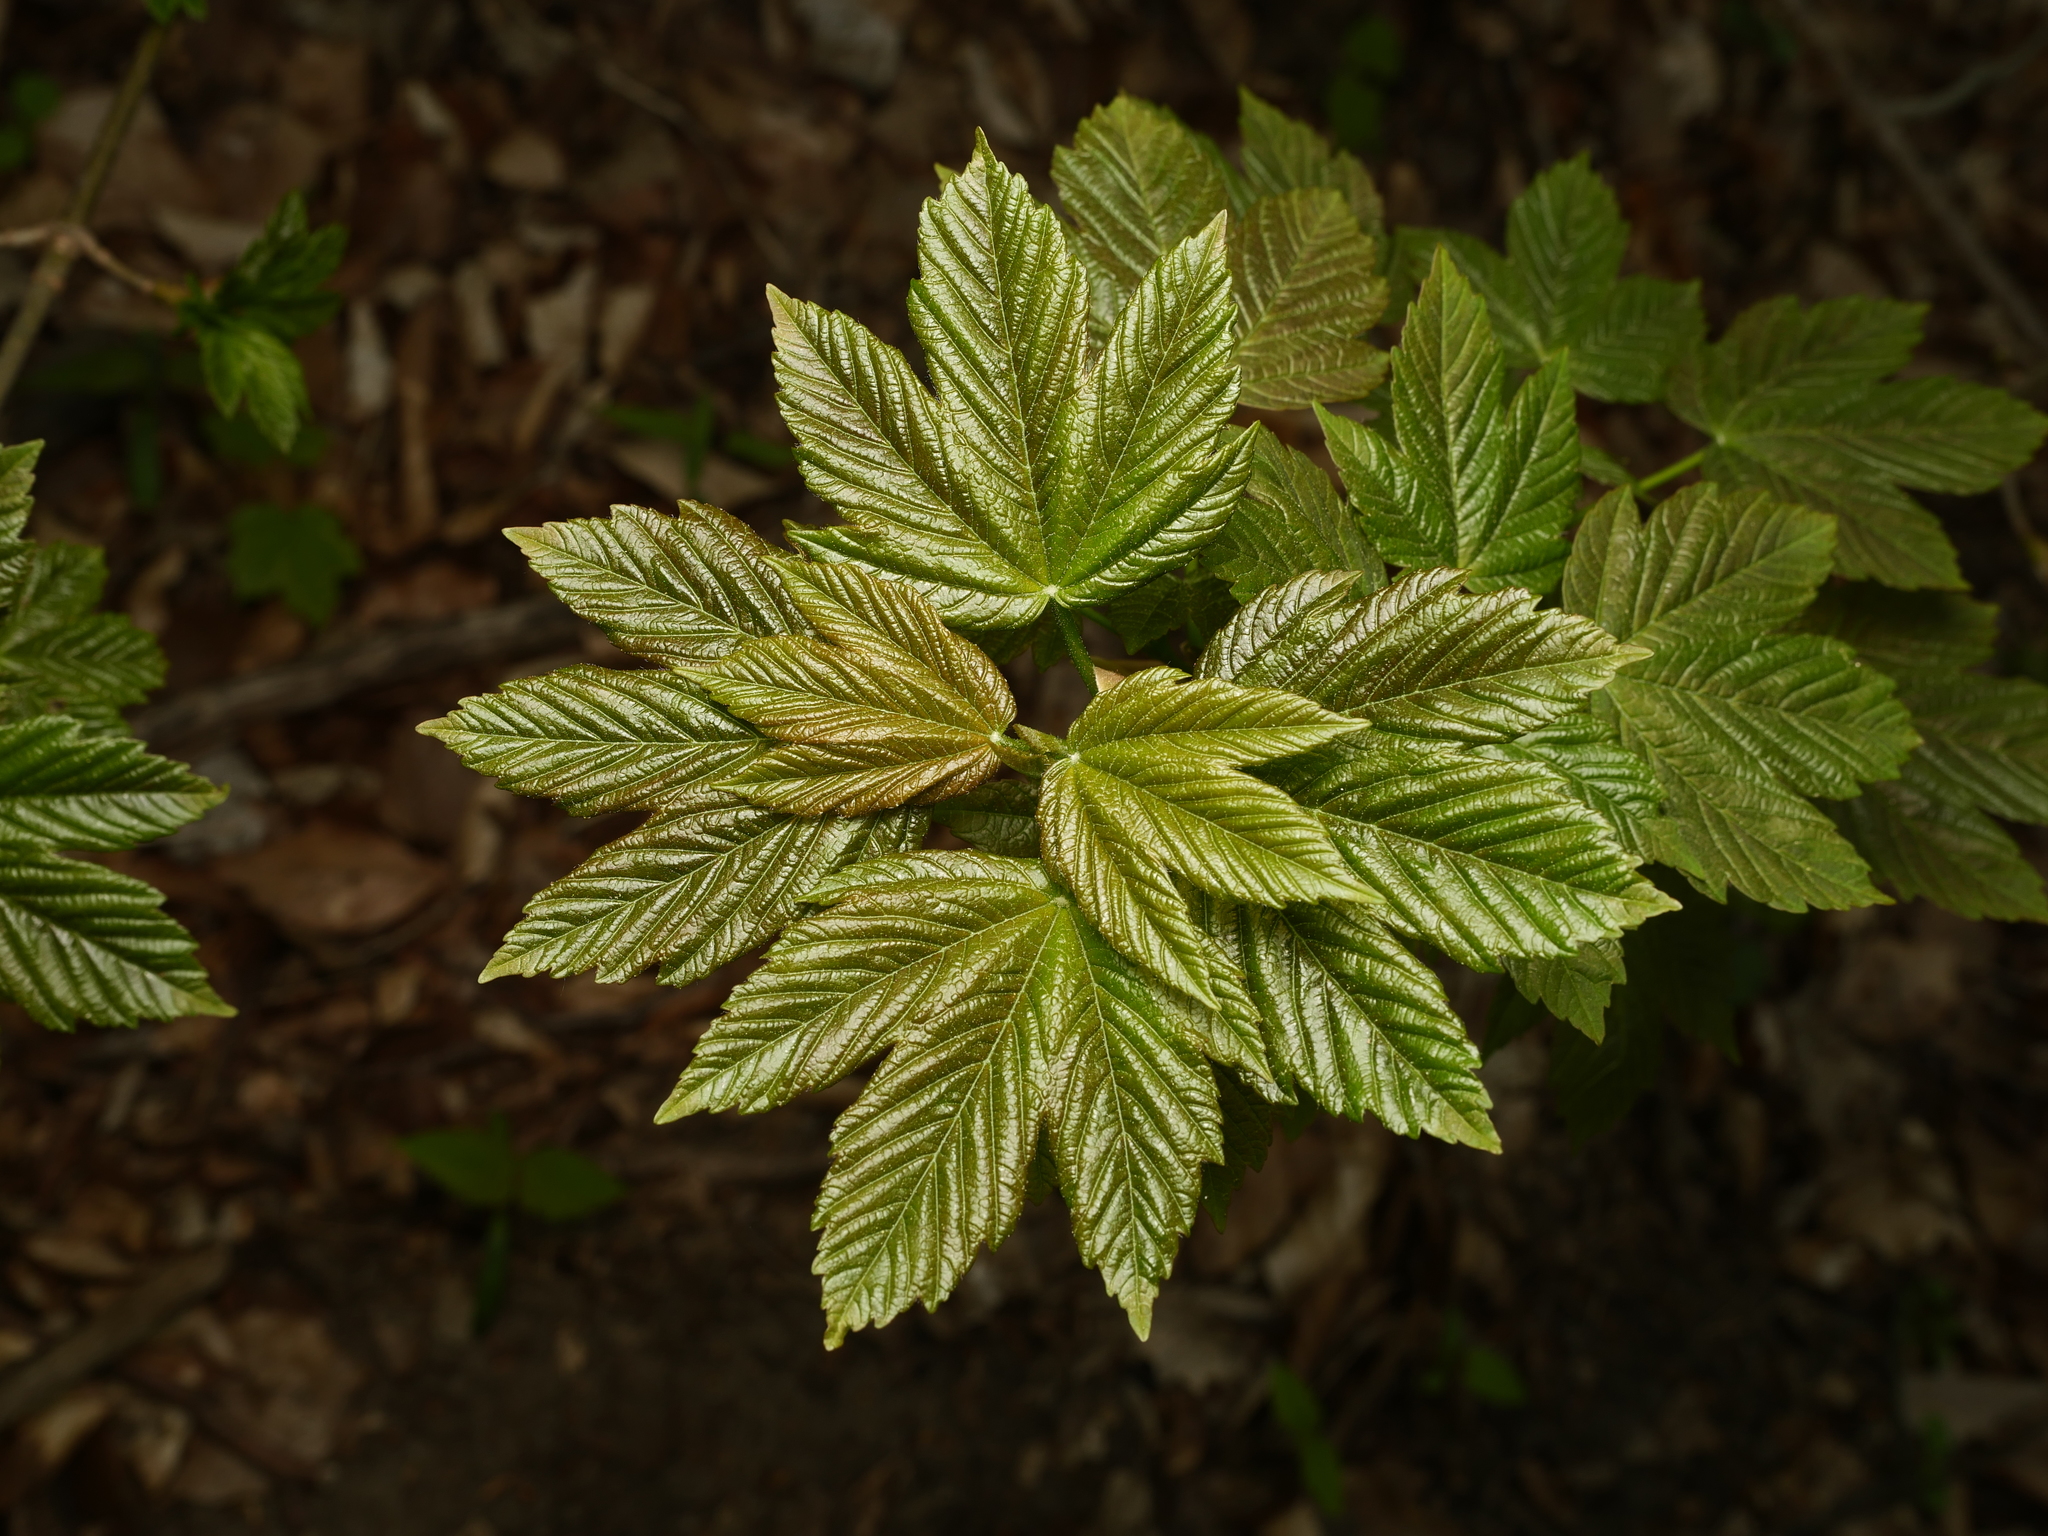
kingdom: Plantae
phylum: Tracheophyta
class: Magnoliopsida
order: Sapindales
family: Sapindaceae
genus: Acer
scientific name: Acer pseudoplatanus
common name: Sycamore
